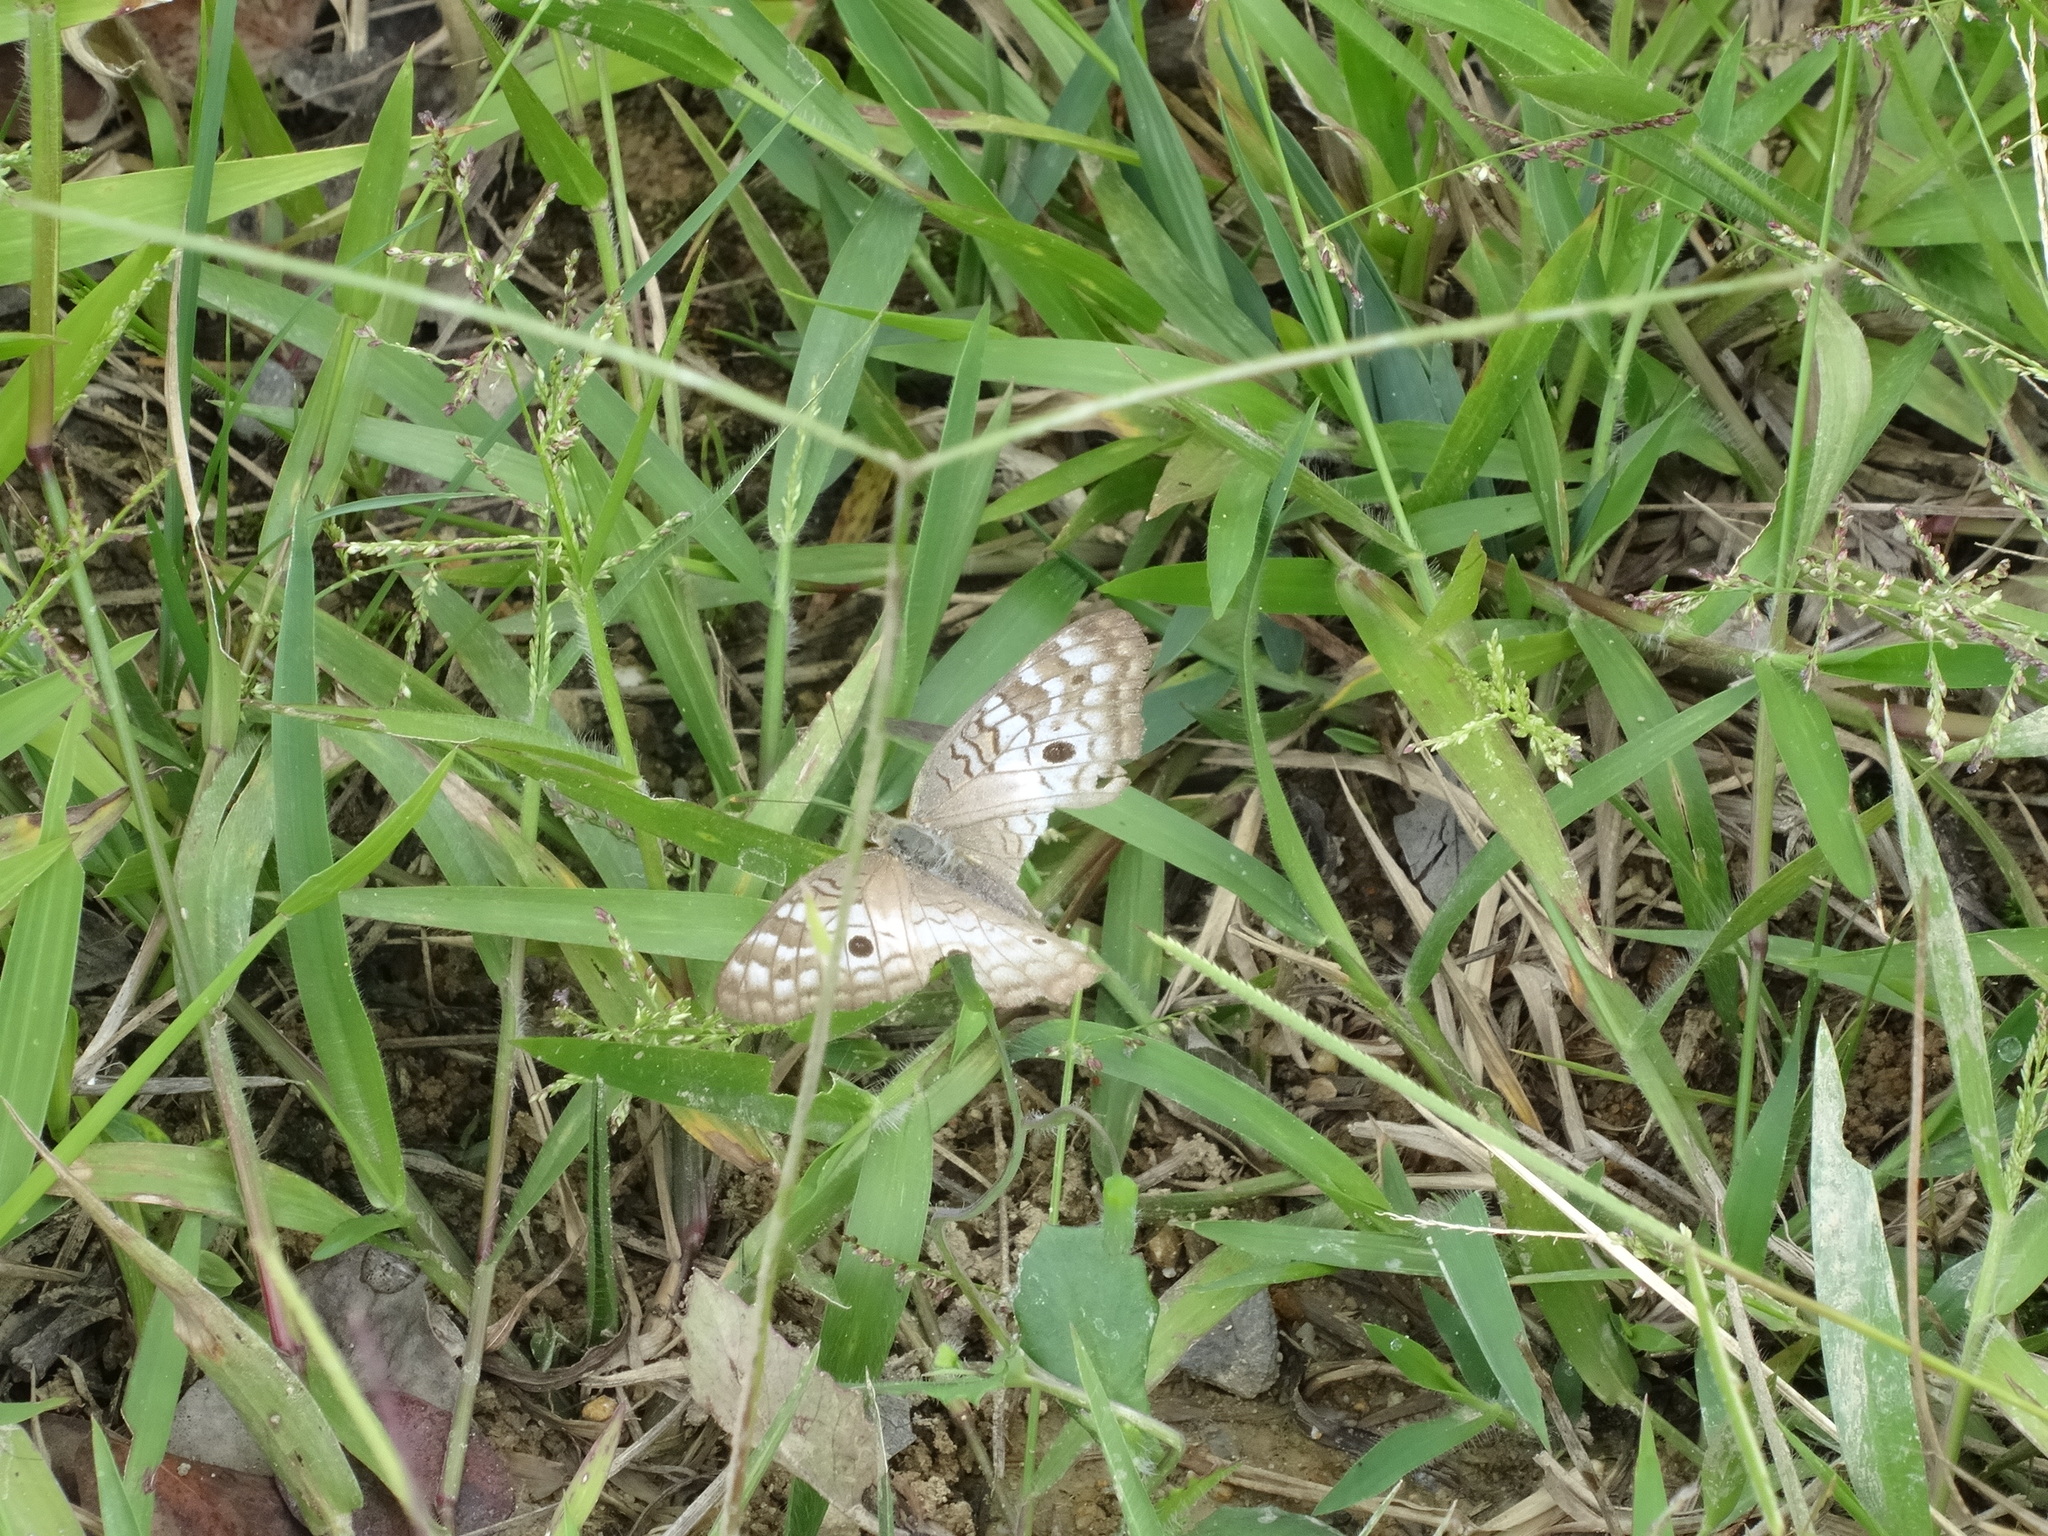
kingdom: Animalia
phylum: Arthropoda
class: Insecta
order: Lepidoptera
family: Nymphalidae
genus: Anartia
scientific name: Anartia jatrophae
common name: White peacock
